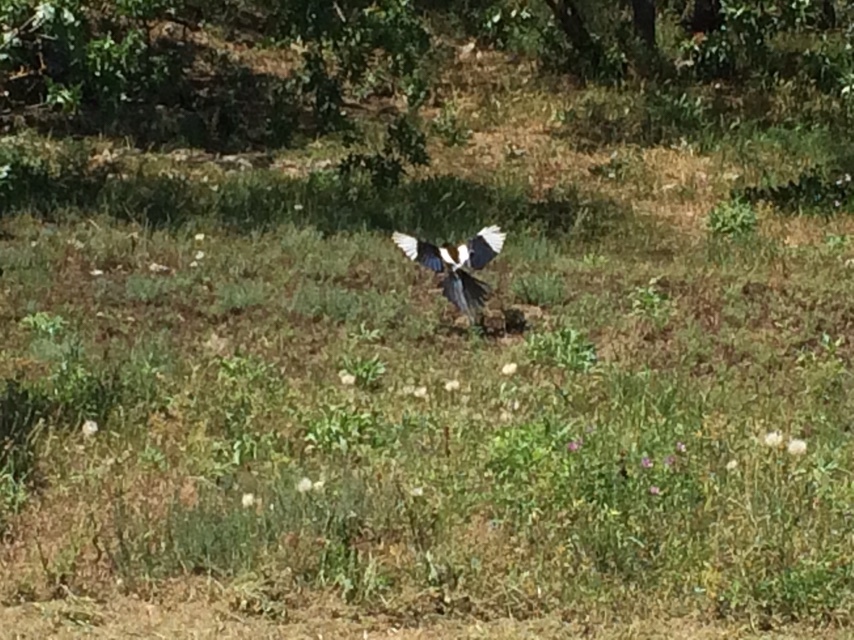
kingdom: Animalia
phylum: Chordata
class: Aves
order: Passeriformes
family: Corvidae
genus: Pica
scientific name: Pica pica
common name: Eurasian magpie
